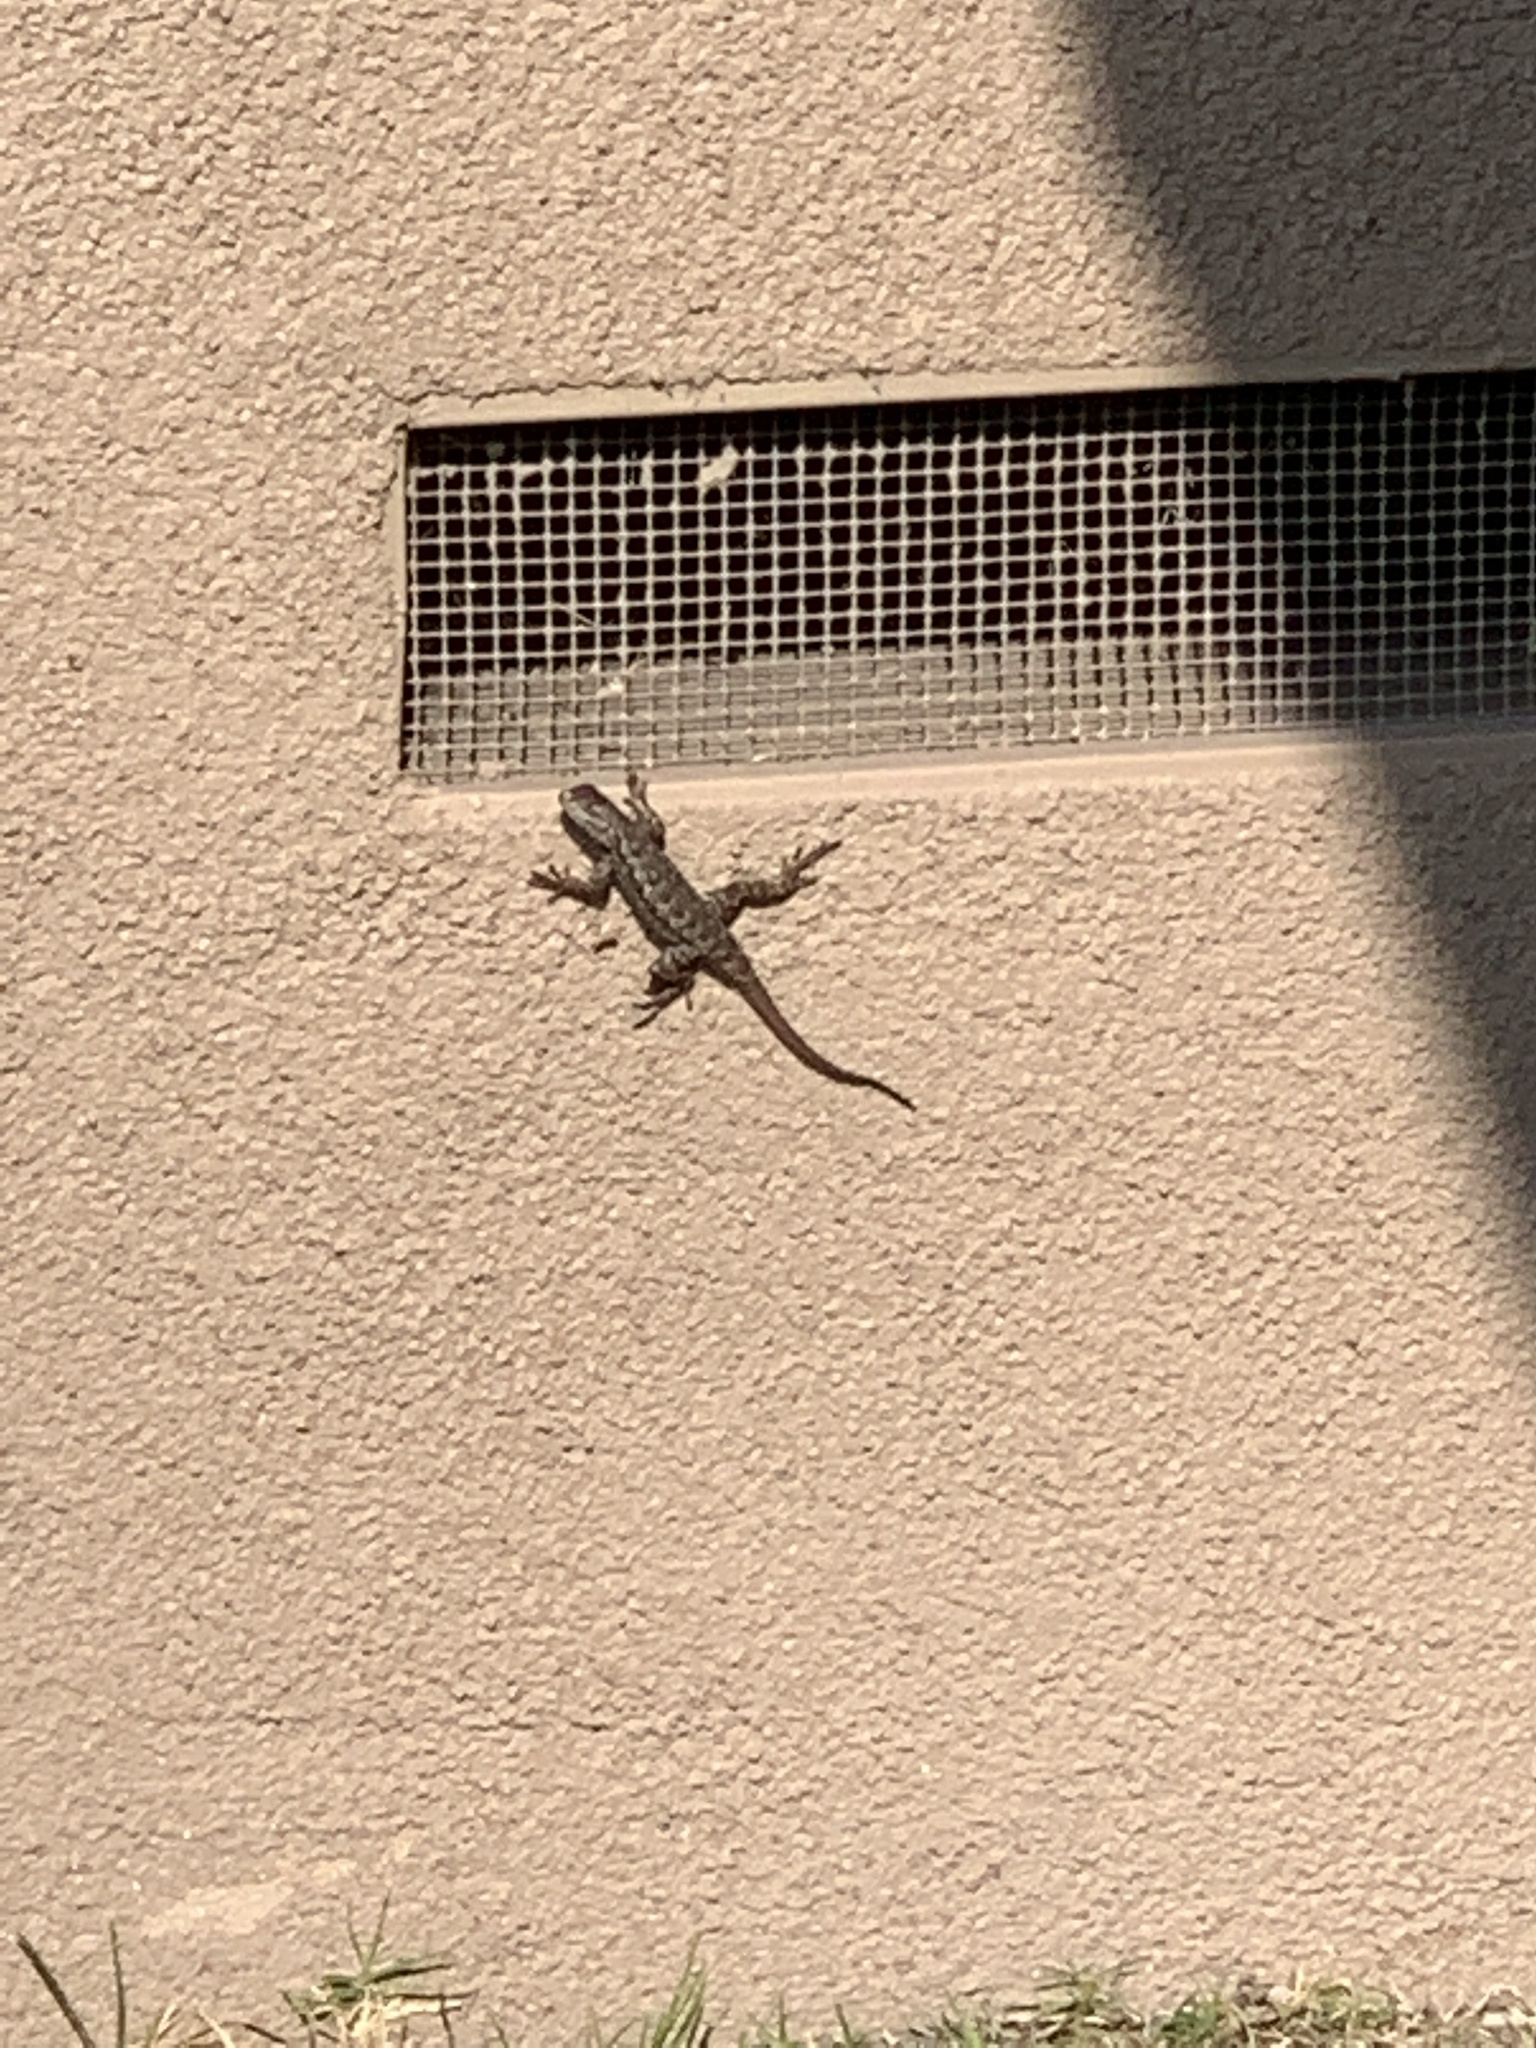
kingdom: Animalia
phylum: Chordata
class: Squamata
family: Phrynosomatidae
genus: Sceloporus
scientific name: Sceloporus occidentalis
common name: Western fence lizard
